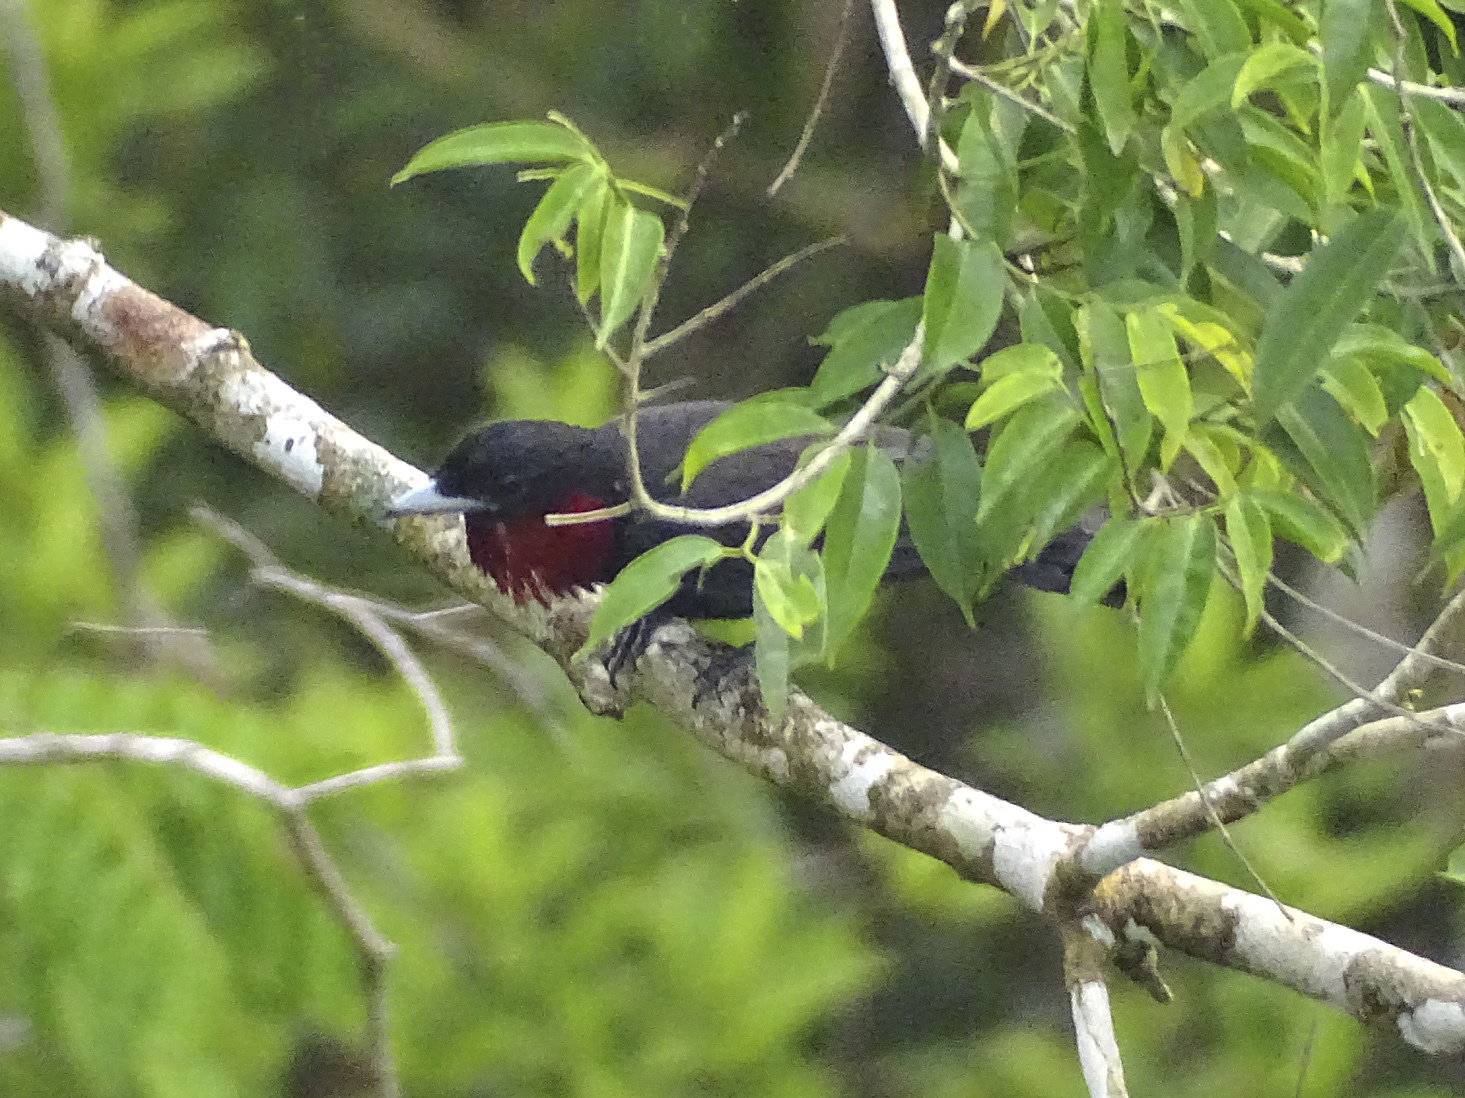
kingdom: Animalia
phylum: Chordata
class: Aves
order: Passeriformes
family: Cotingidae
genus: Querula
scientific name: Querula purpurata
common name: Purple-throated fruitcrow
